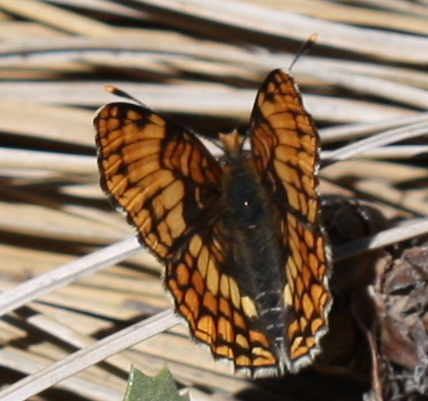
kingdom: Animalia
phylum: Arthropoda
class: Insecta
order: Lepidoptera
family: Nymphalidae
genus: Chlosyne
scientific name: Chlosyne hoffmanni
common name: Hoffmann's checkerspot
